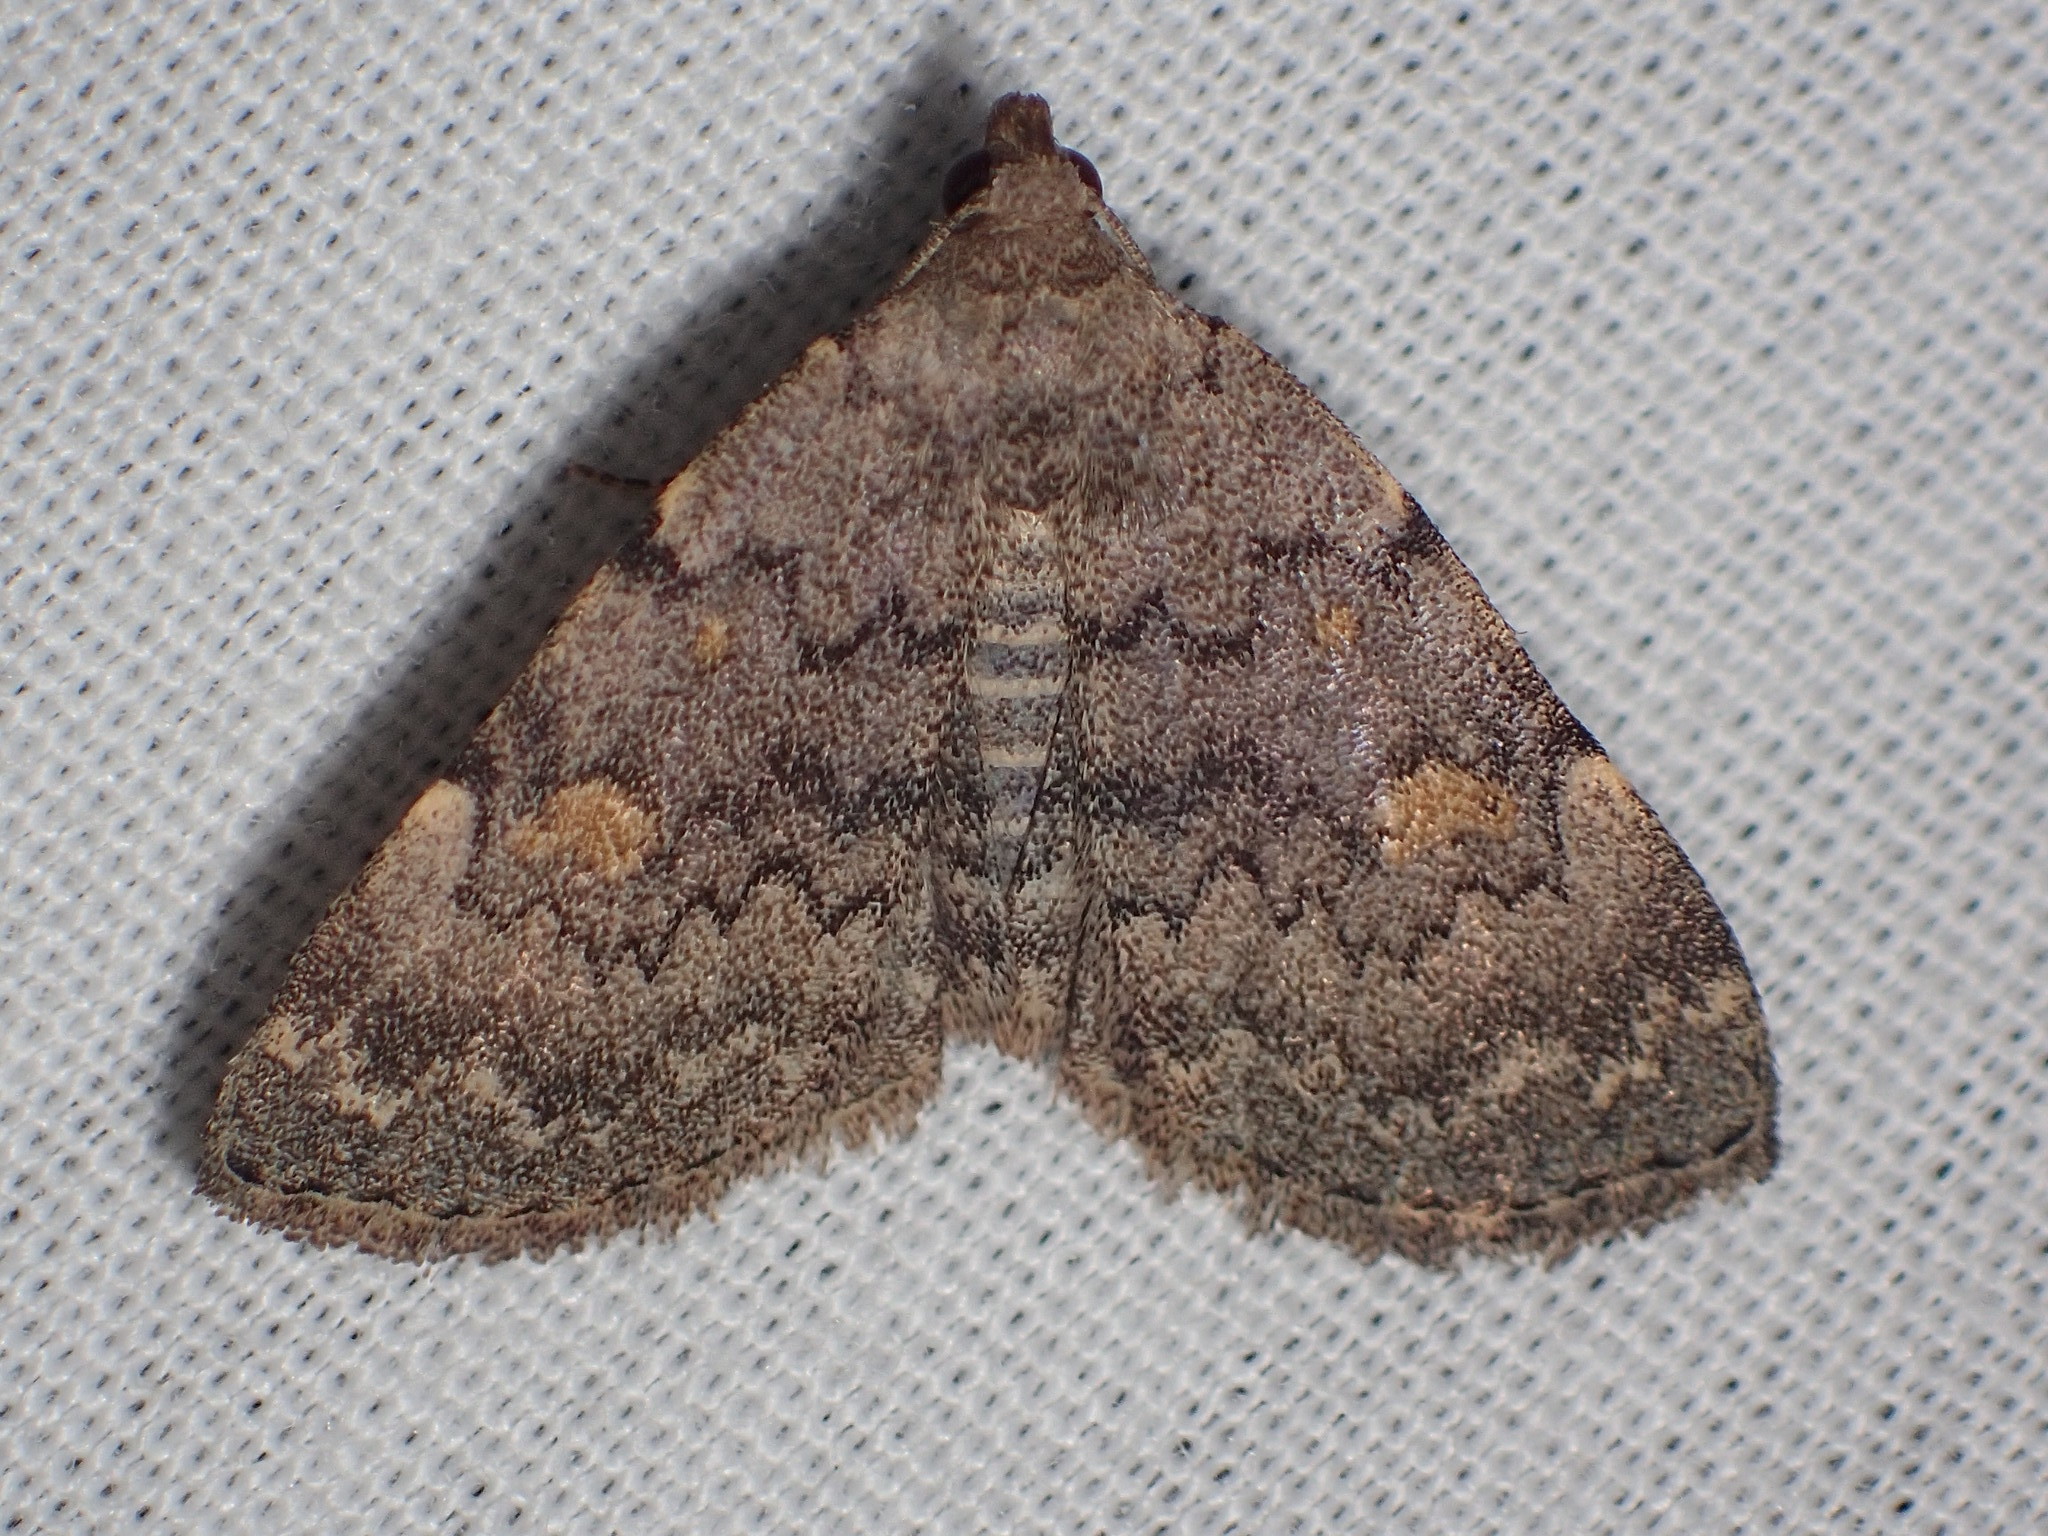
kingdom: Animalia
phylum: Arthropoda
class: Insecta
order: Lepidoptera
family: Erebidae
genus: Idia
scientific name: Idia aemula
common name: Common idia moth
